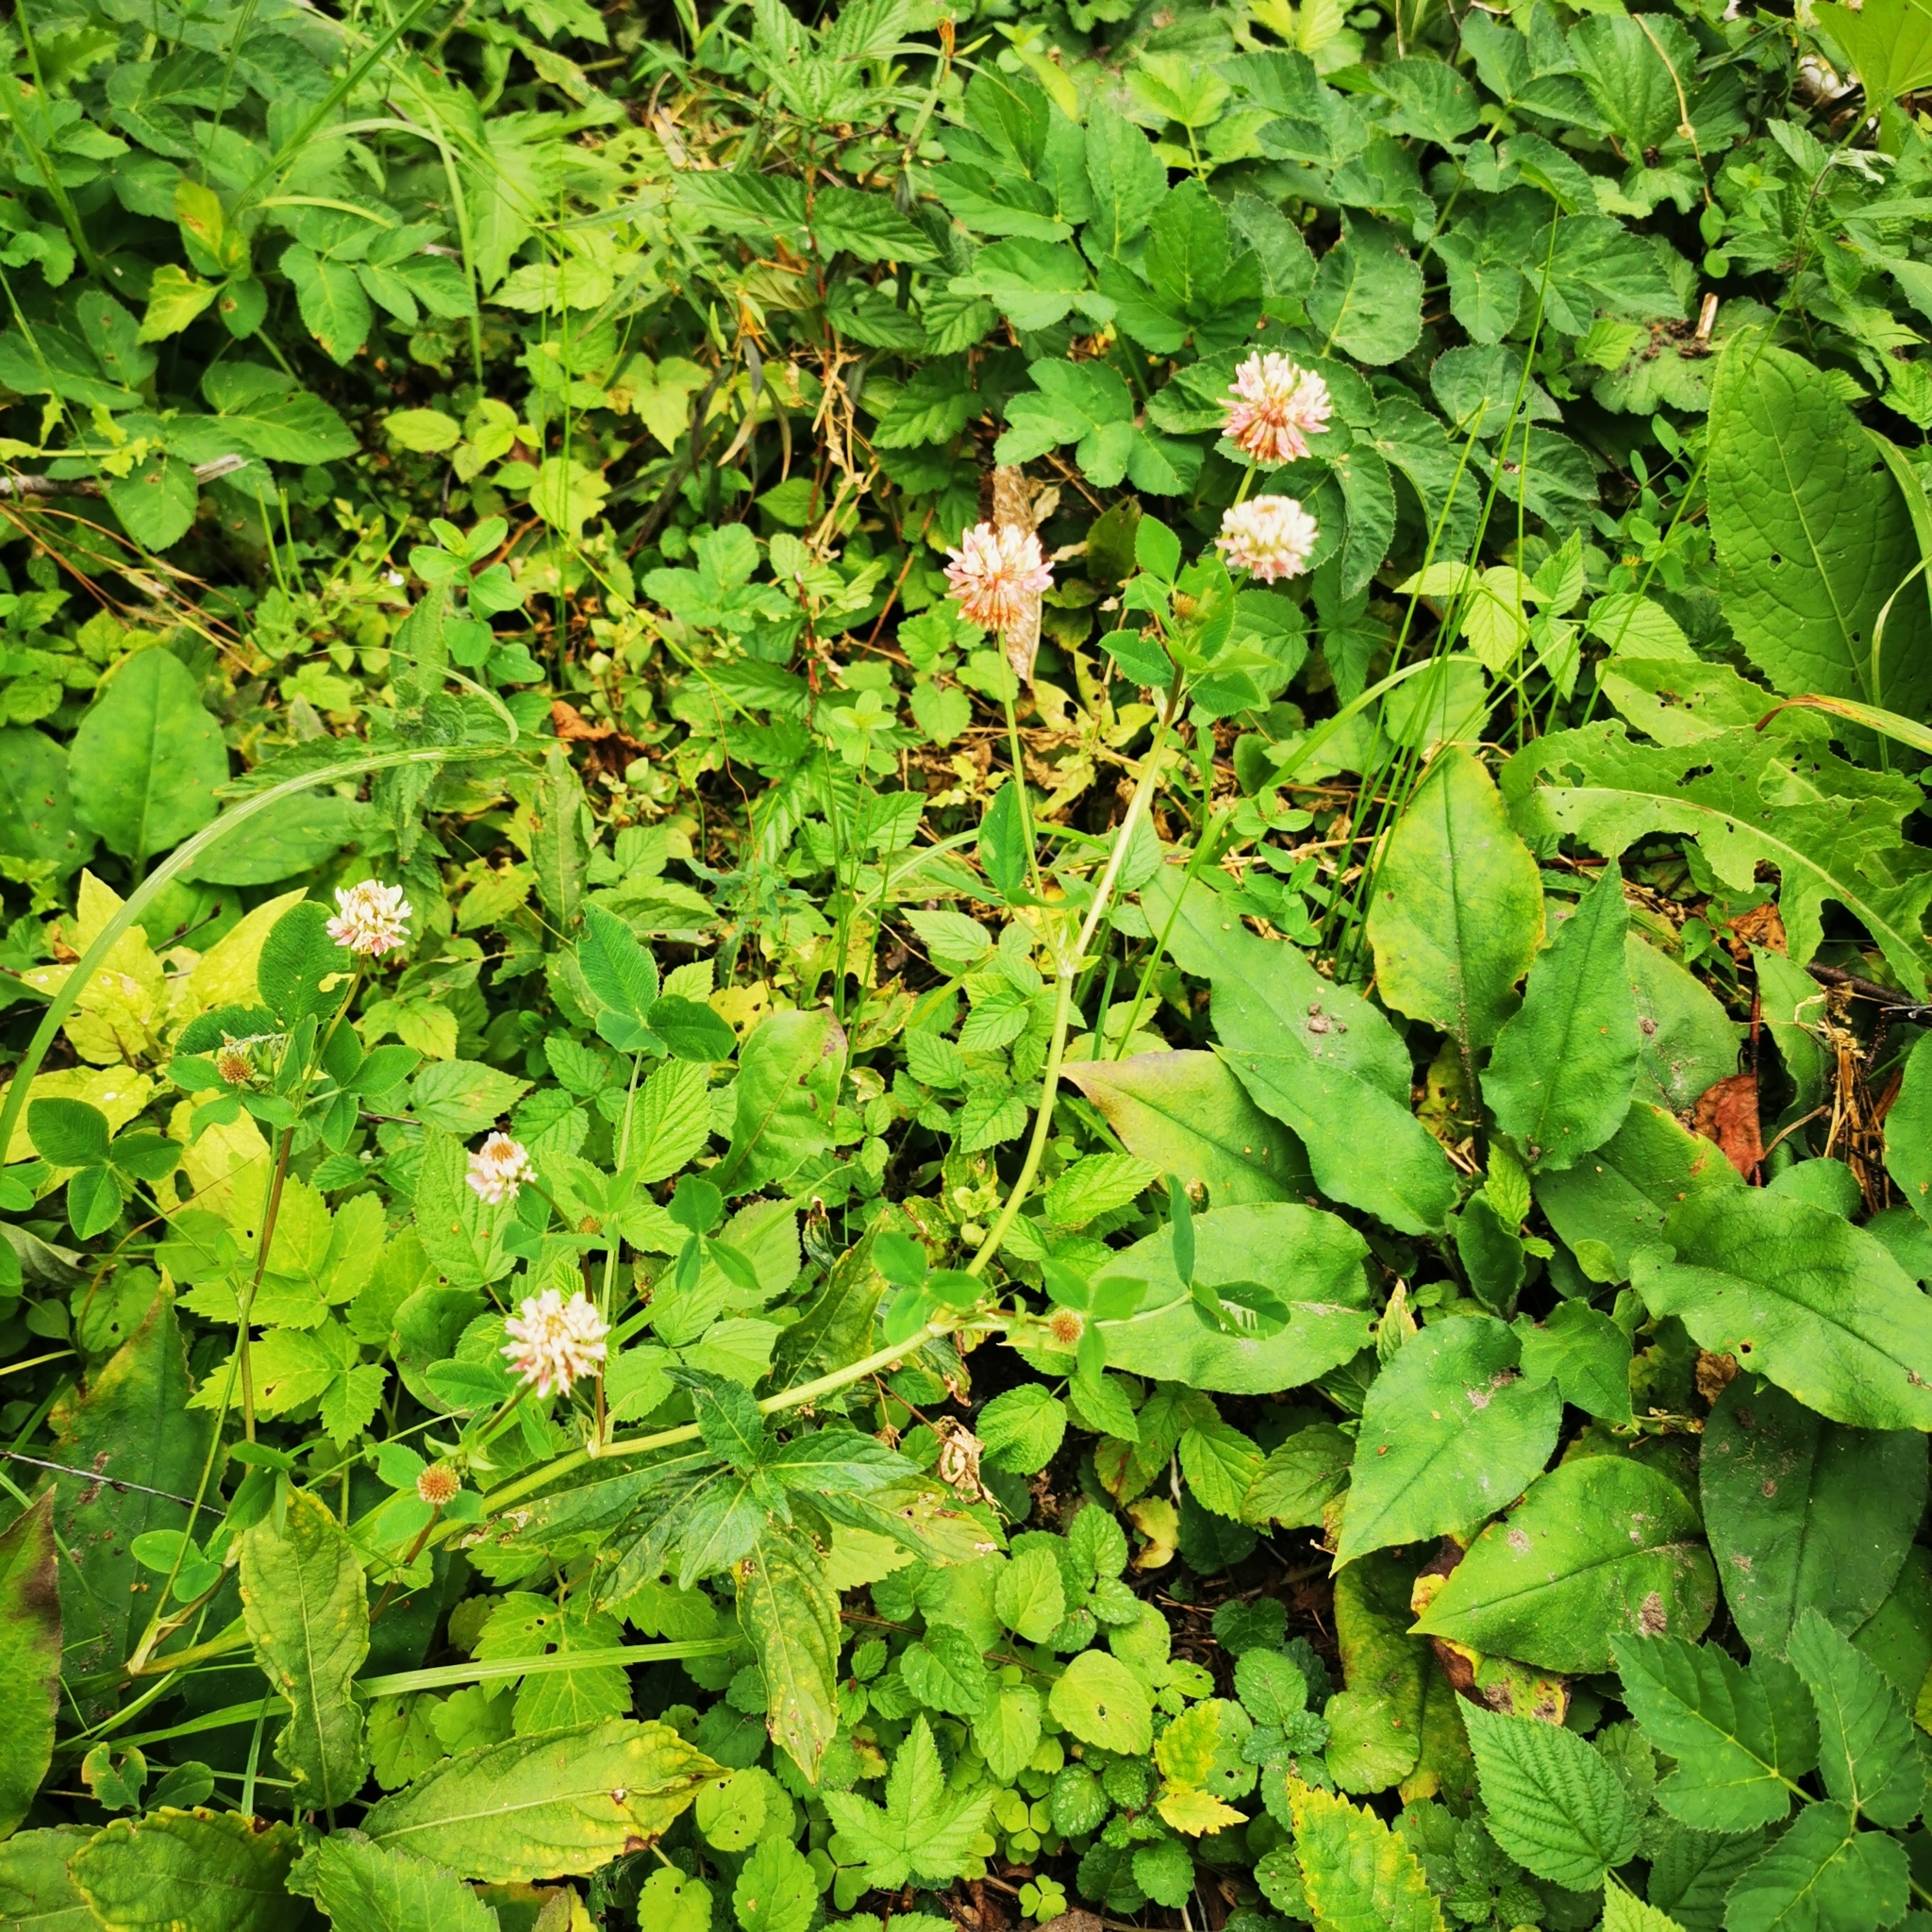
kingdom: Plantae
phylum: Tracheophyta
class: Magnoliopsida
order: Fabales
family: Fabaceae
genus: Trifolium
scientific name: Trifolium hybridum
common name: Alsike clover
